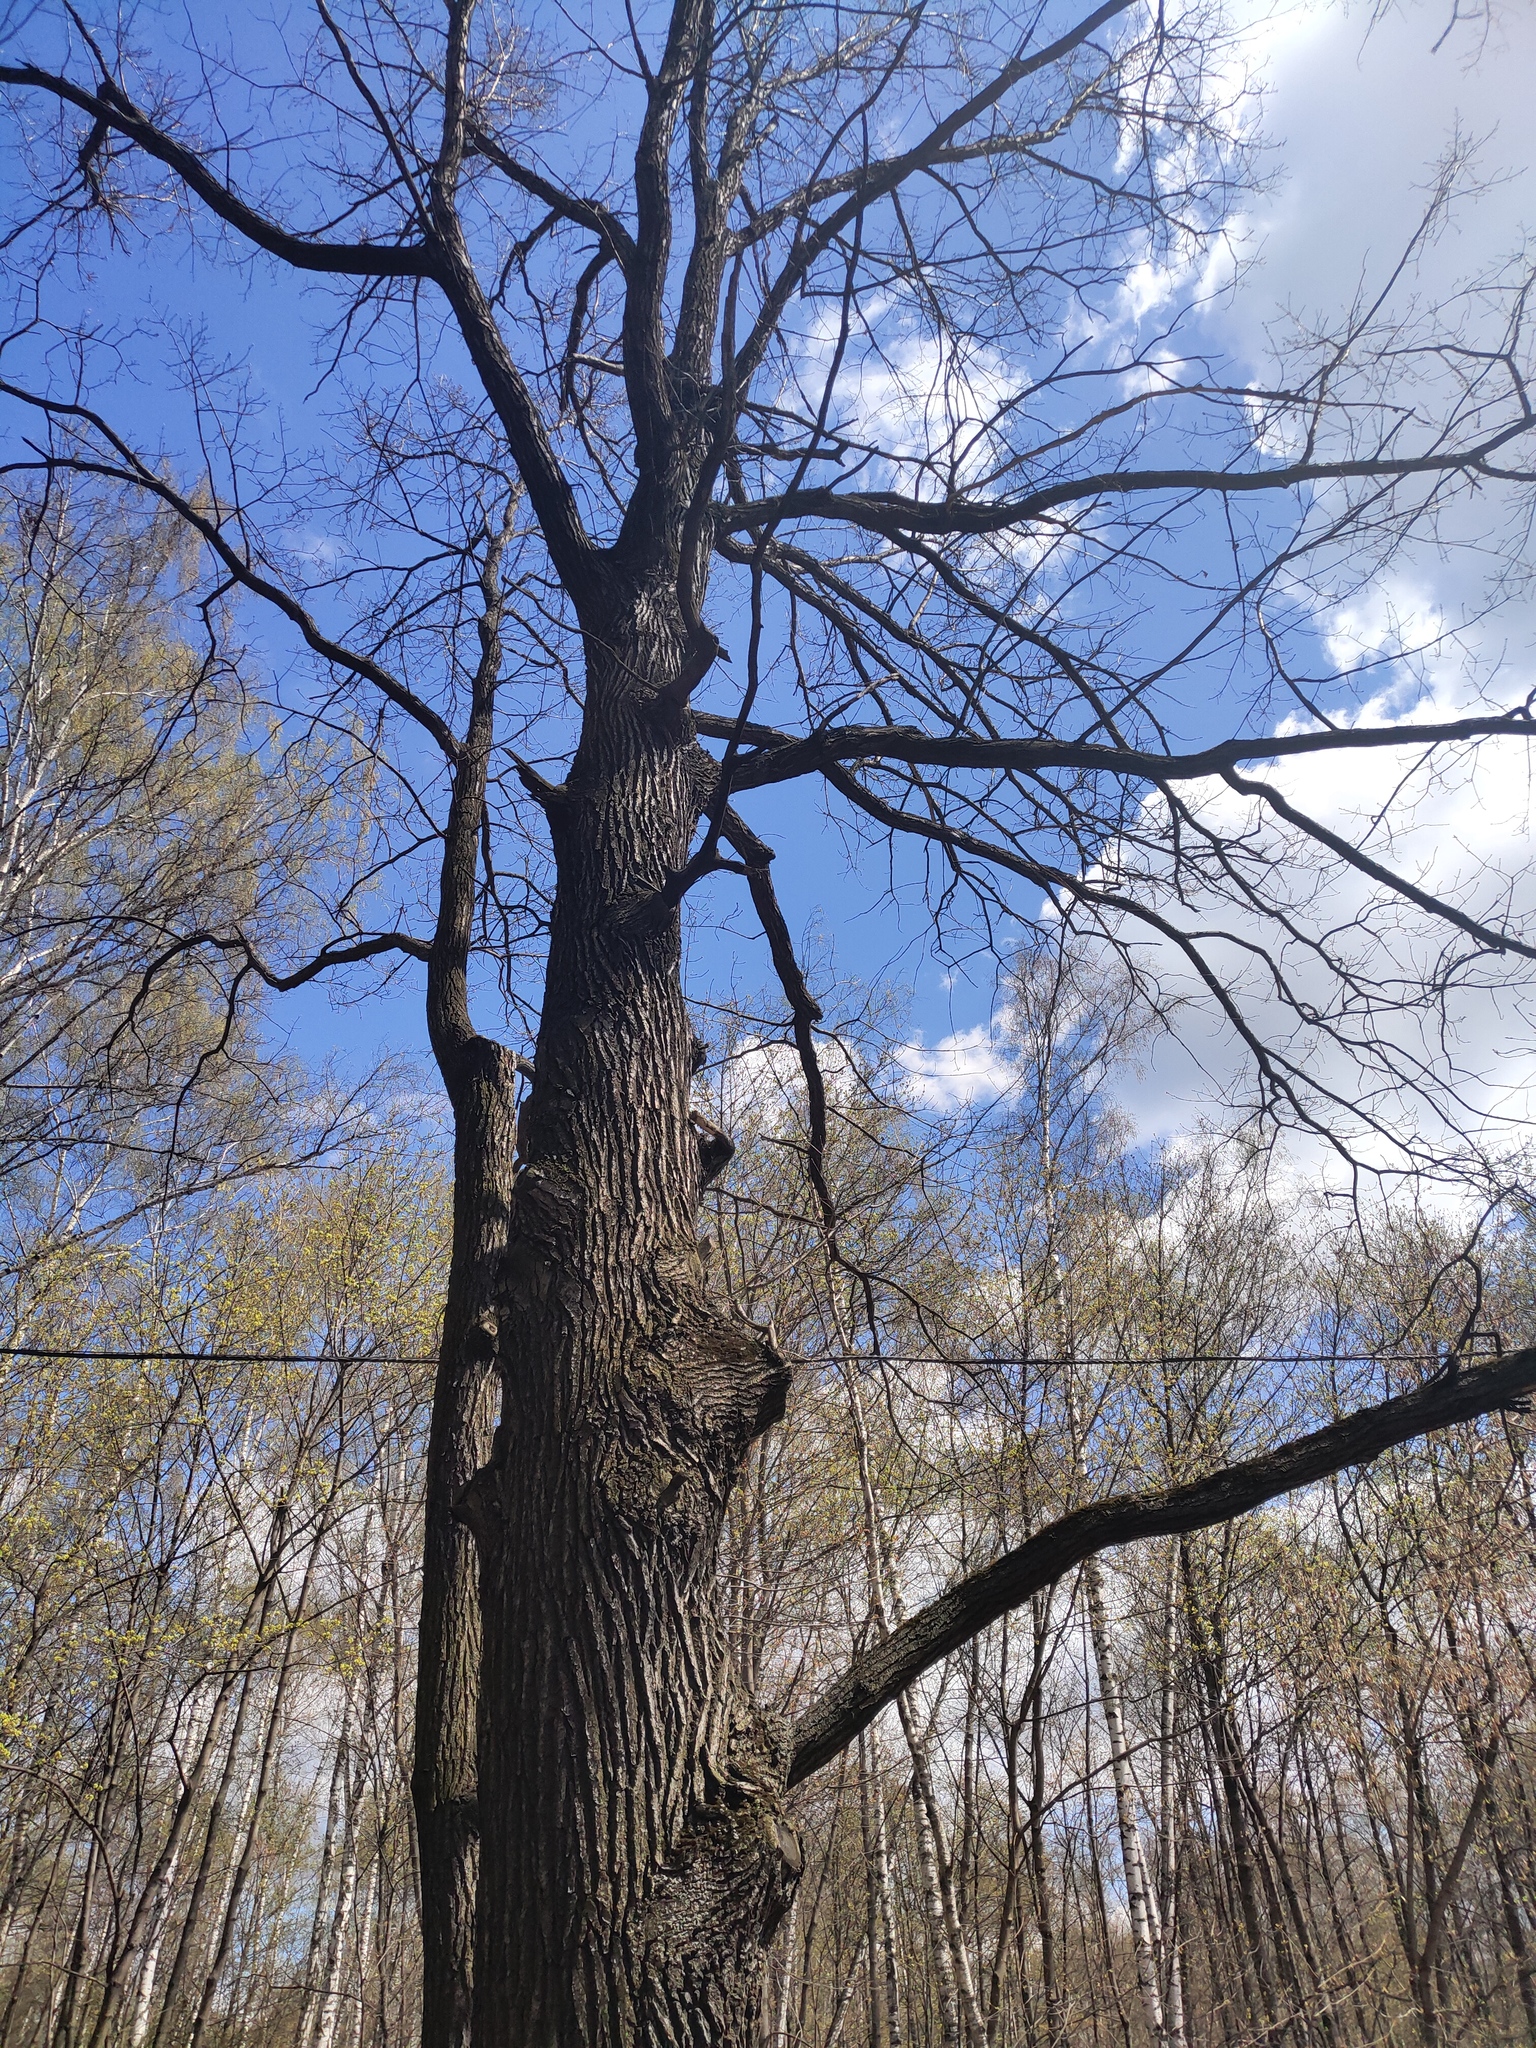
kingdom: Plantae
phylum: Tracheophyta
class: Magnoliopsida
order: Fagales
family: Fagaceae
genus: Quercus
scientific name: Quercus robur
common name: Pedunculate oak
